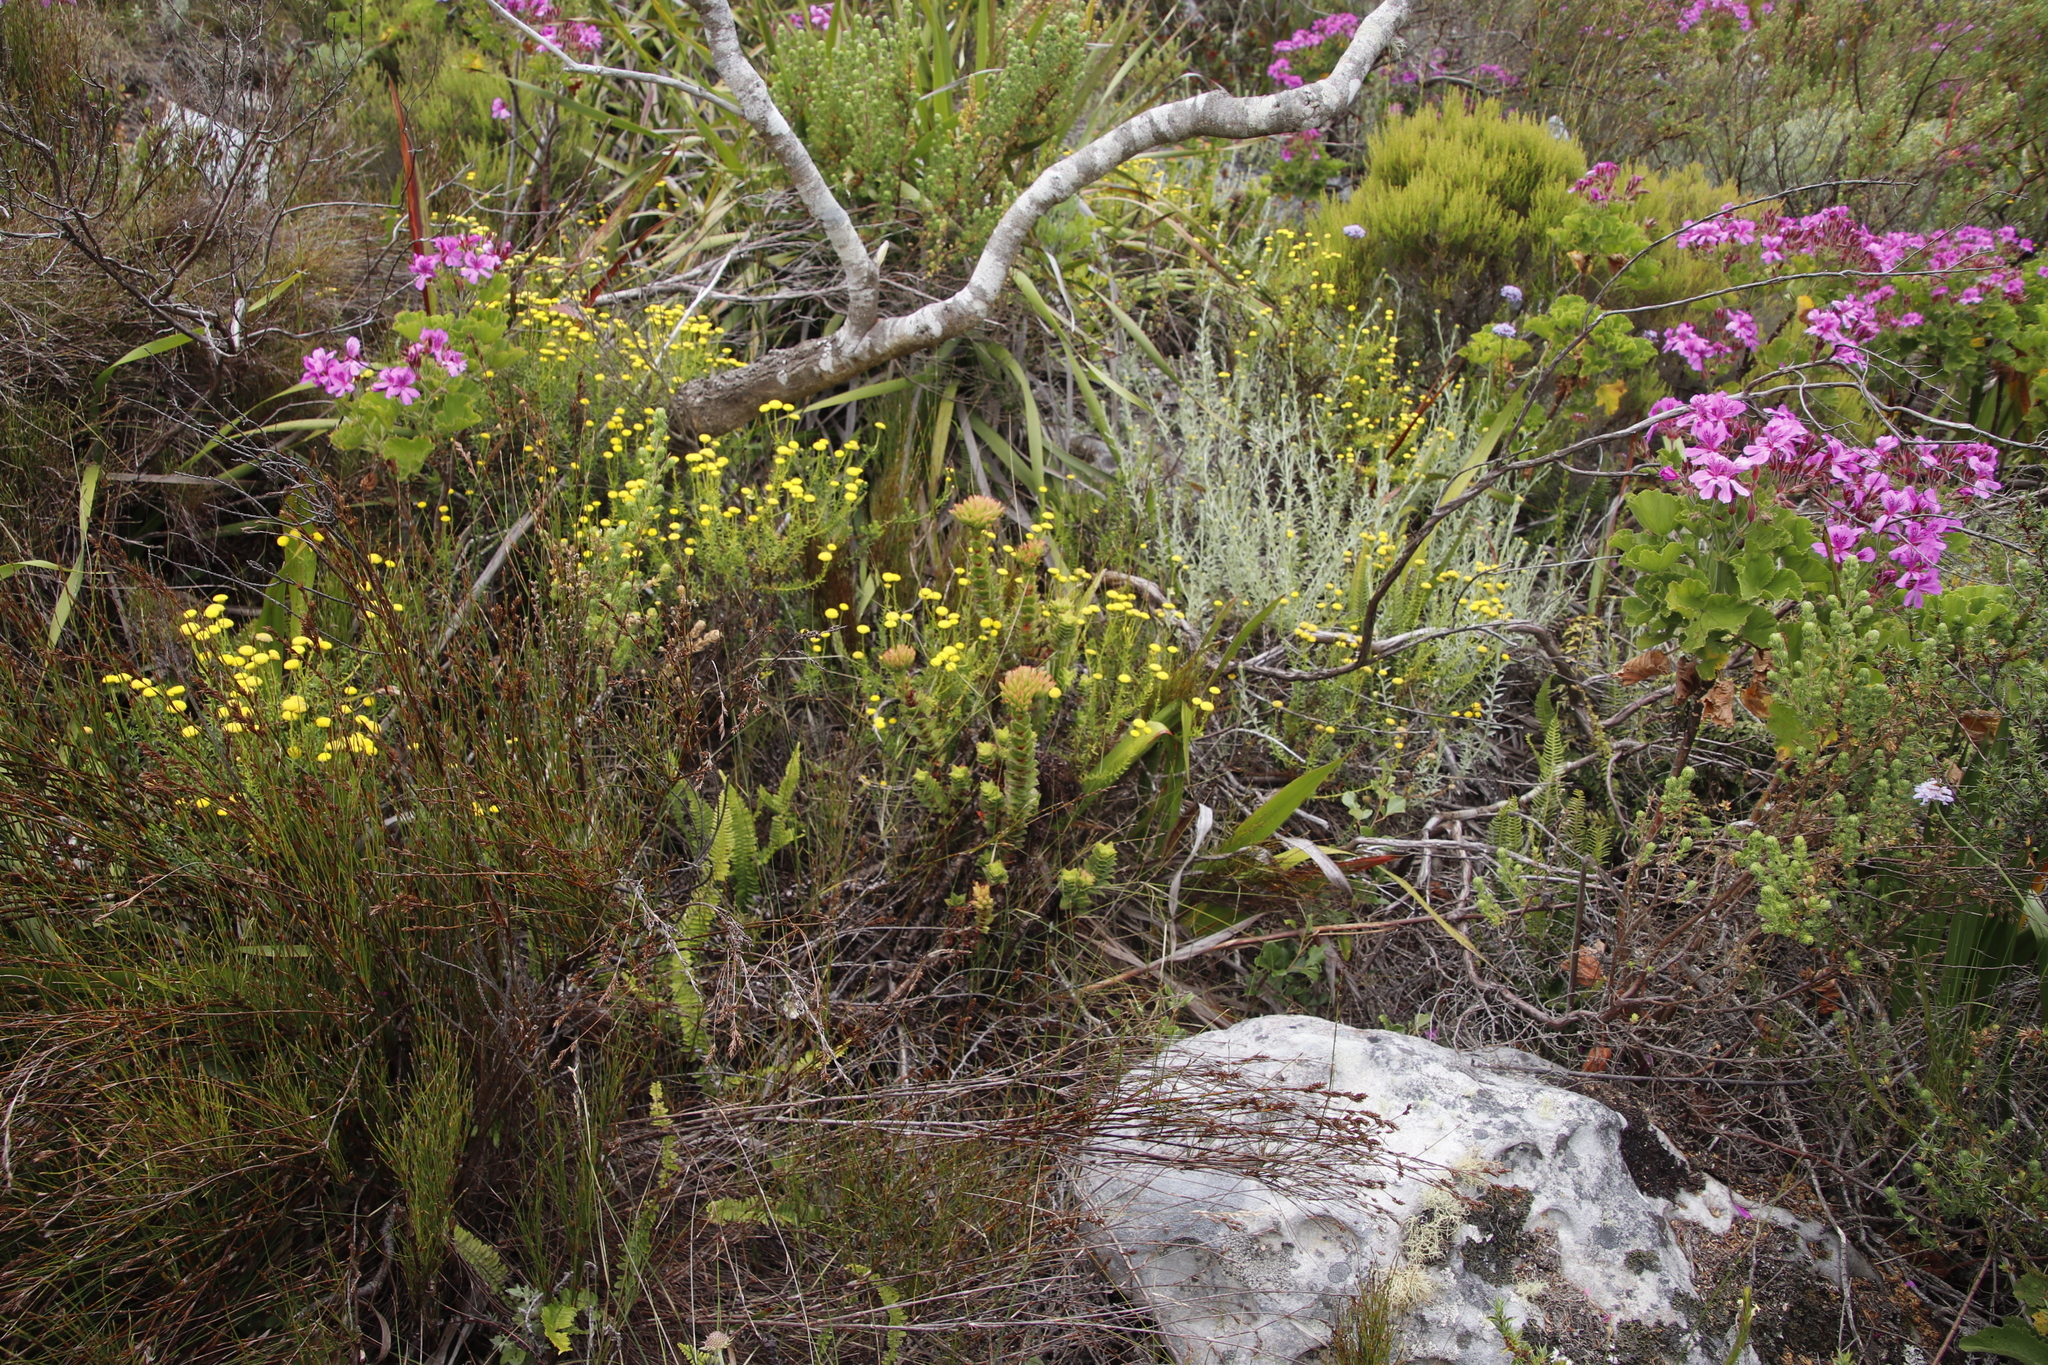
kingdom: Plantae
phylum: Tracheophyta
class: Magnoliopsida
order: Saxifragales
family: Crassulaceae
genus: Crassula
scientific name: Crassula coccinea
